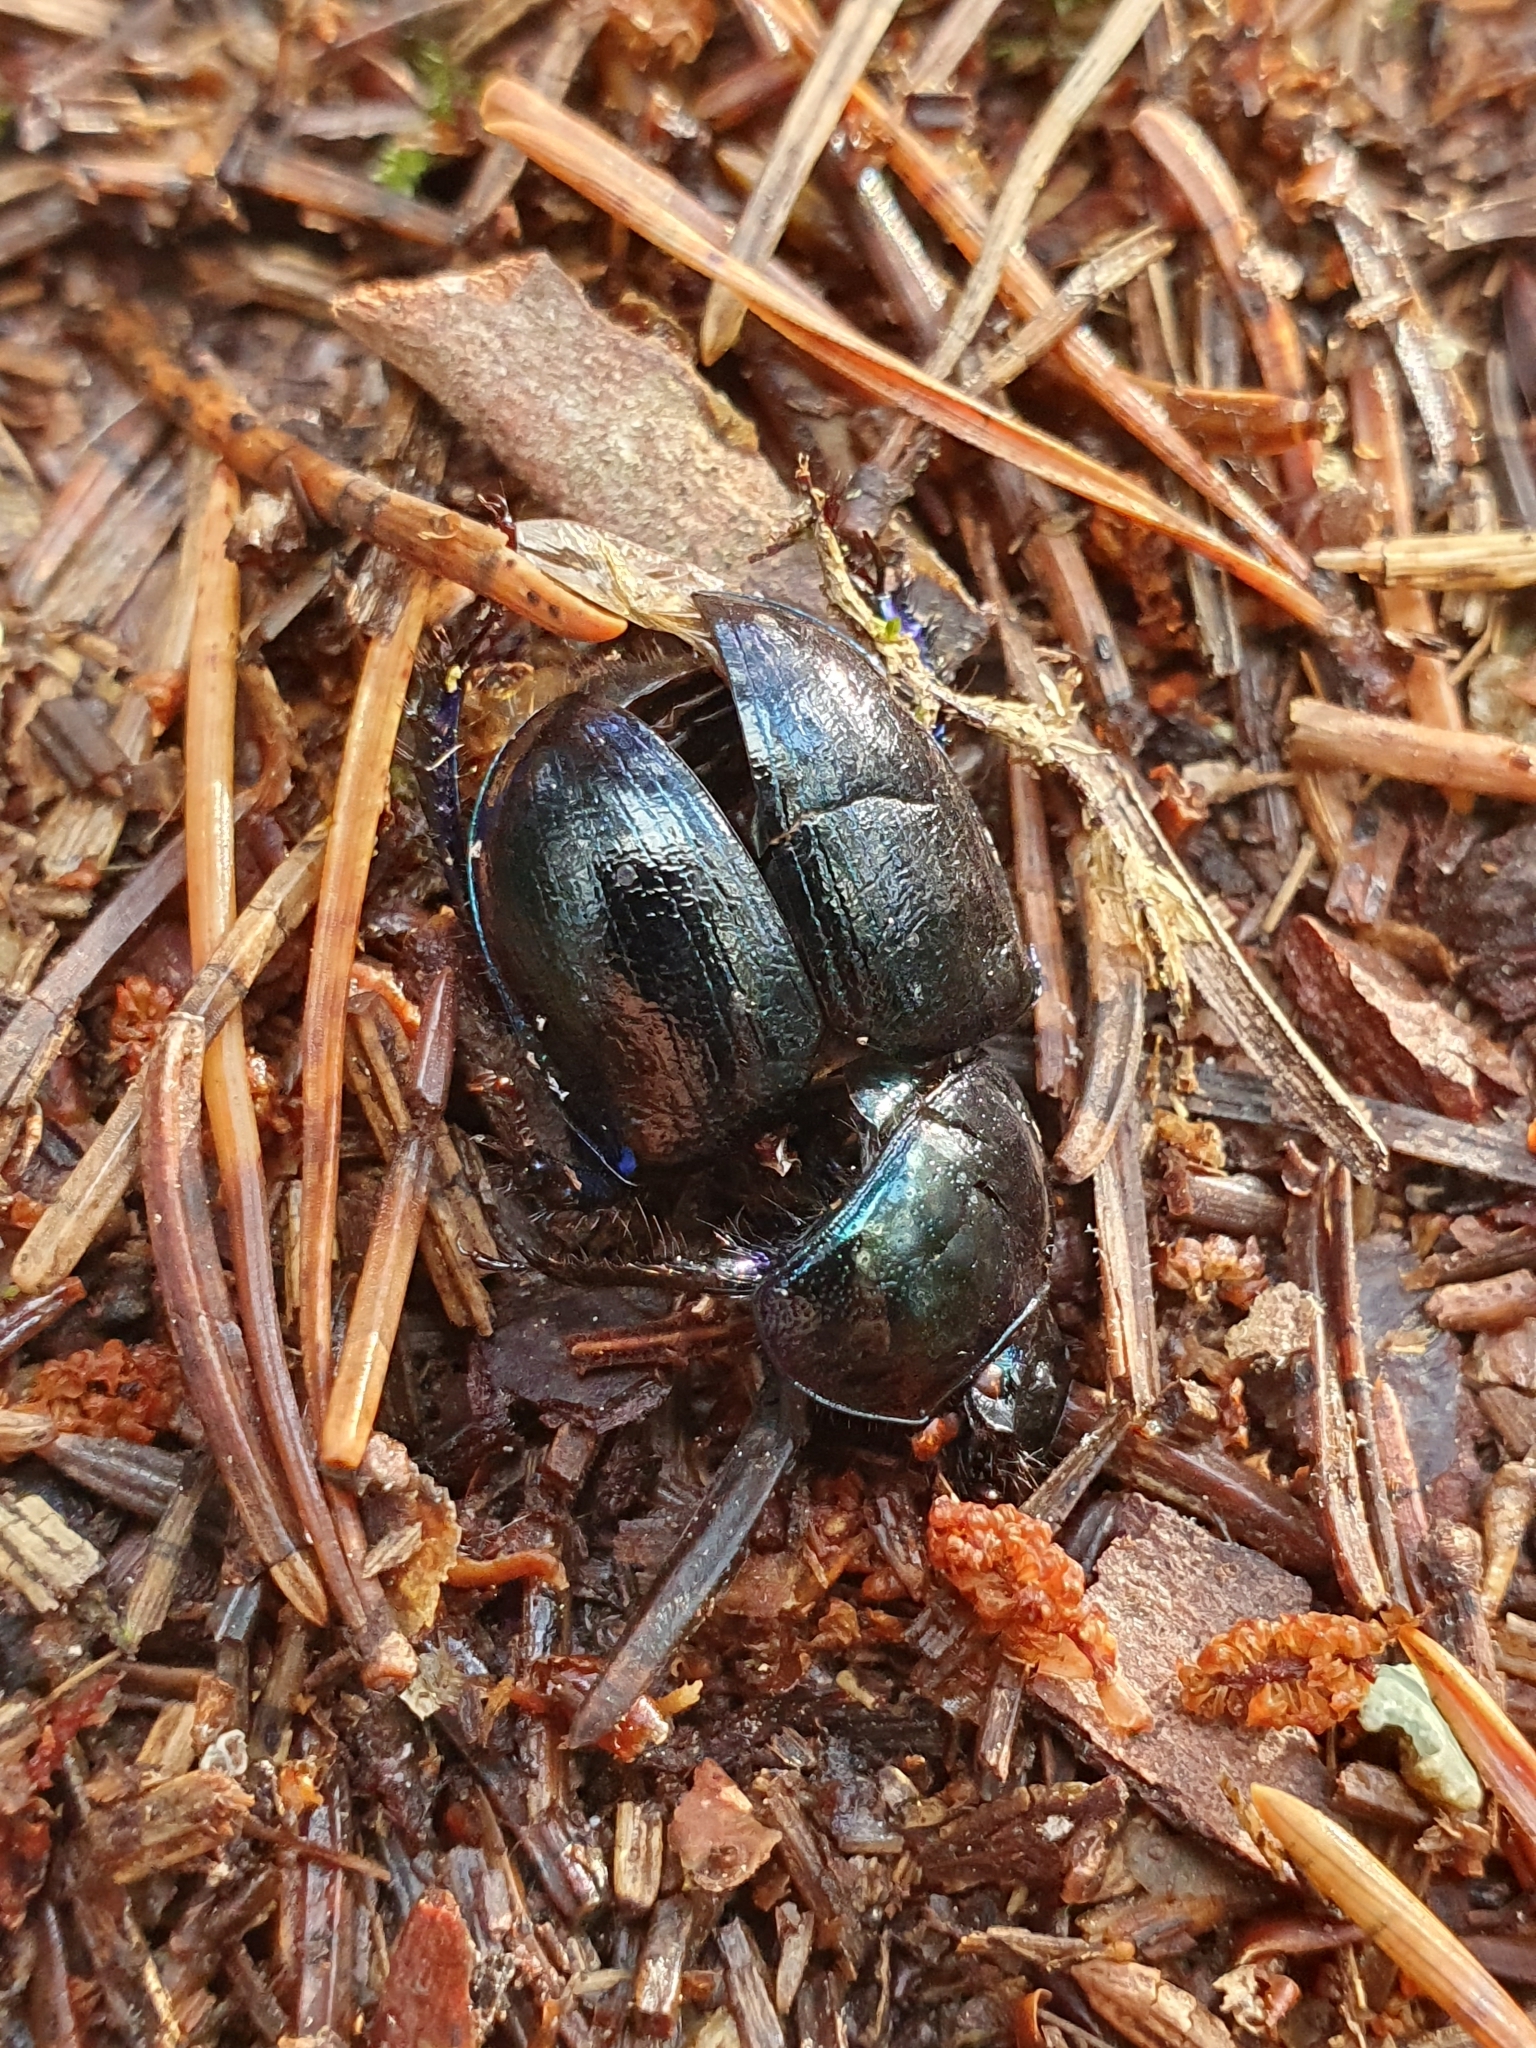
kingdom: Animalia
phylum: Arthropoda
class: Insecta
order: Coleoptera
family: Geotrupidae
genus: Anoplotrupes
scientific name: Anoplotrupes stercorosus
